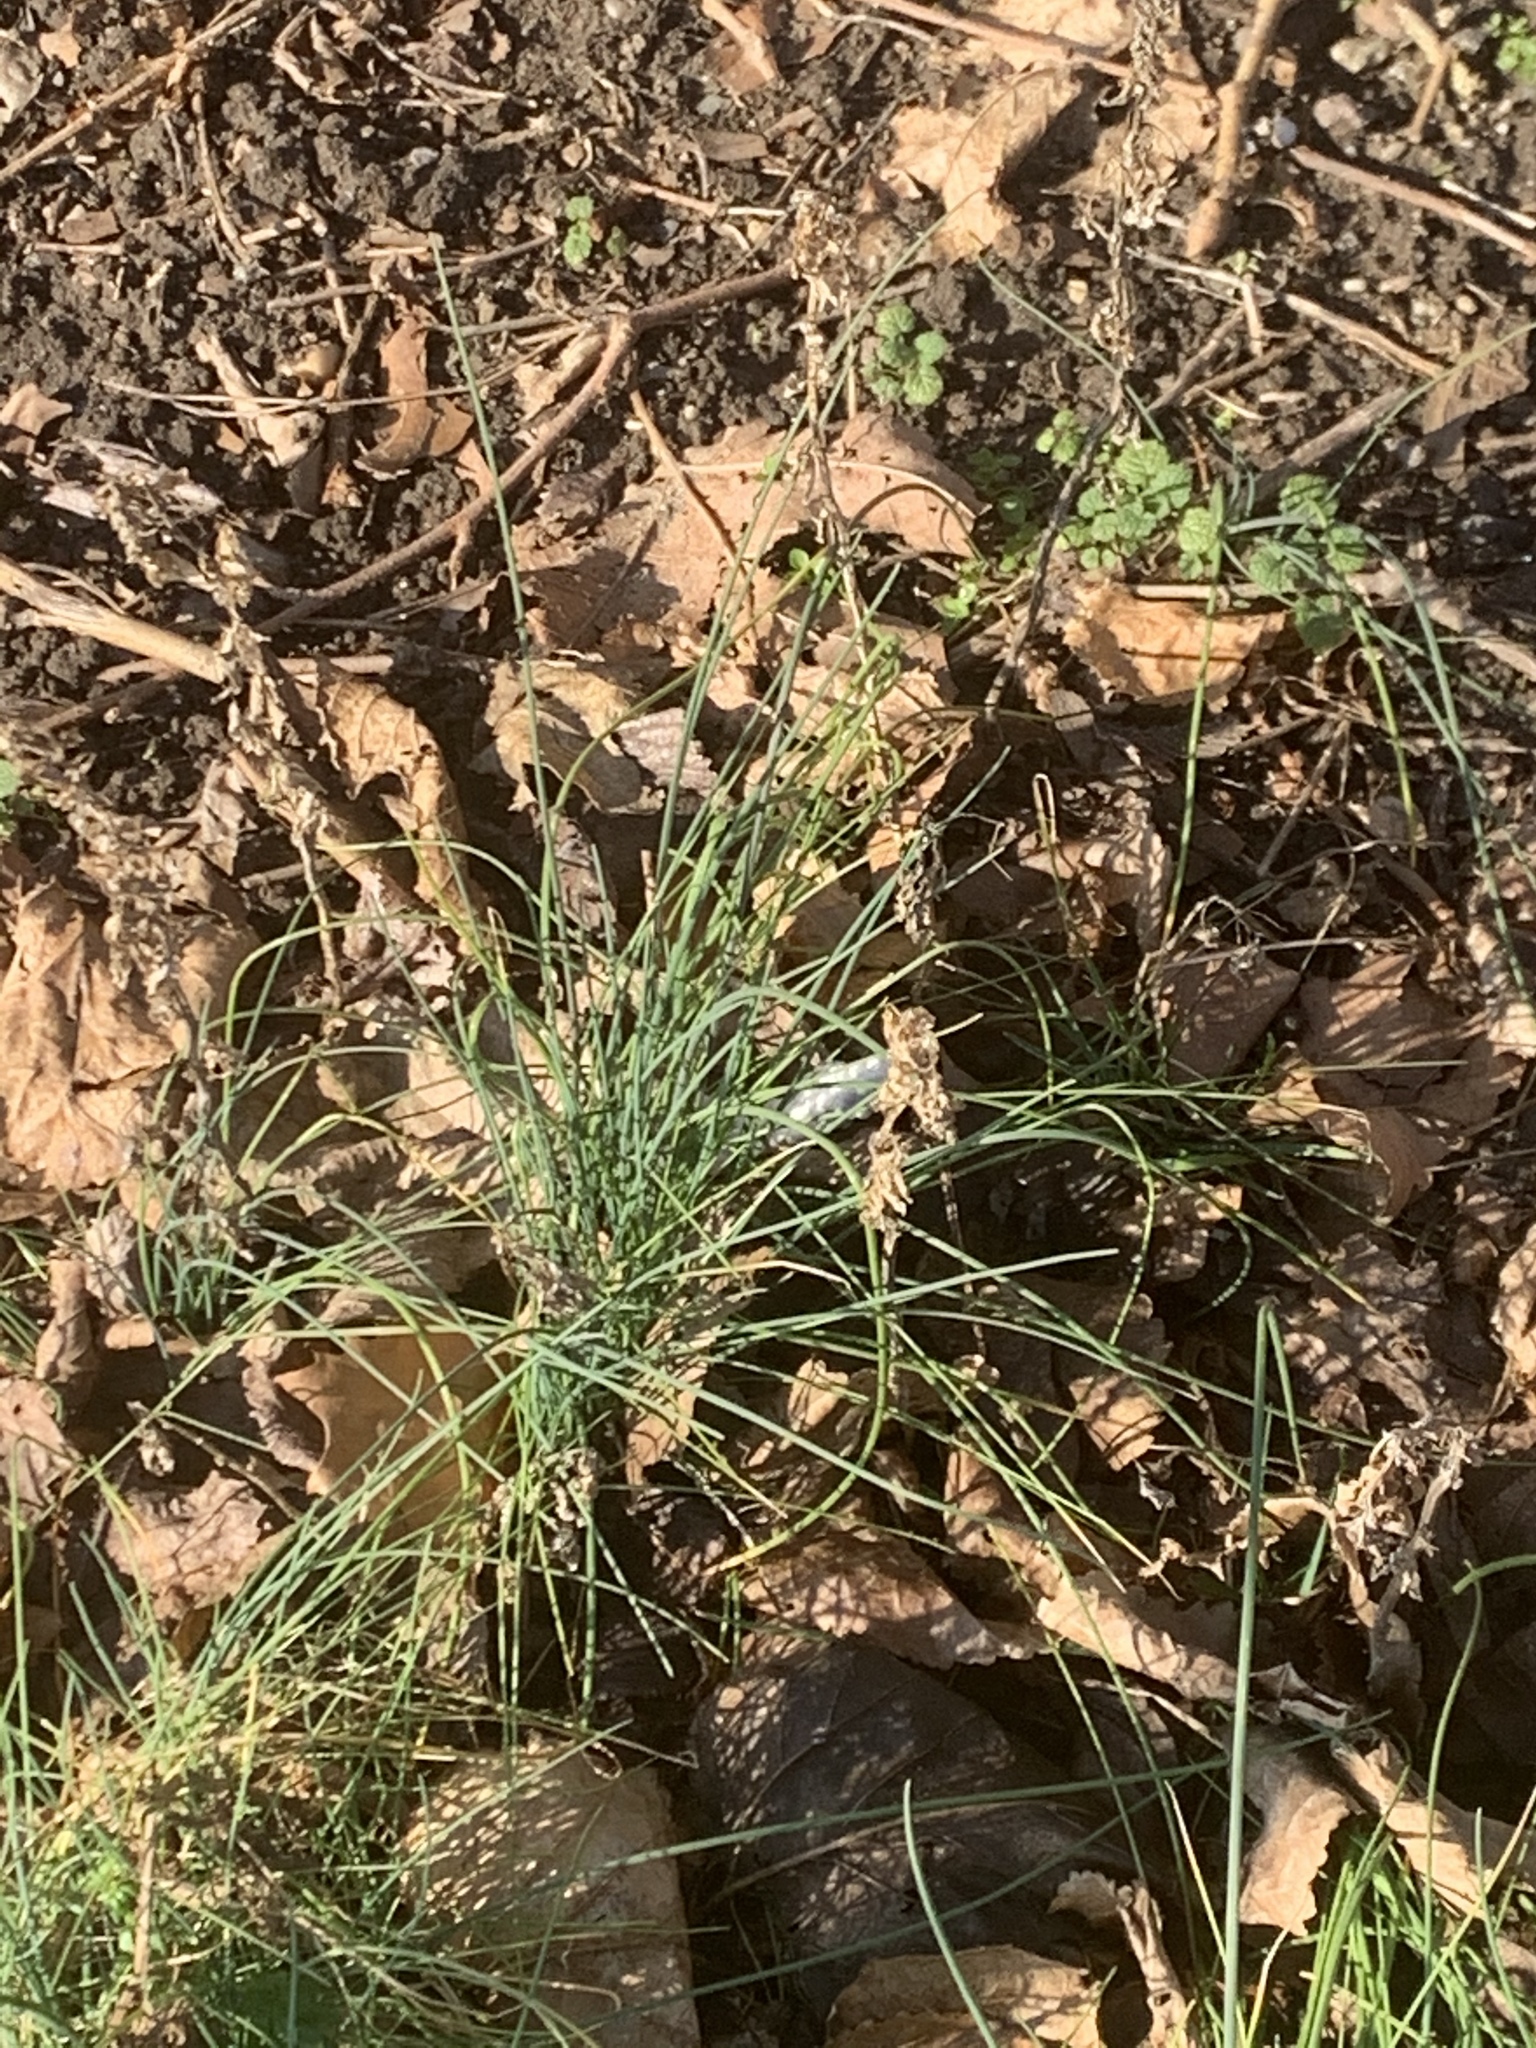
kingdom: Plantae
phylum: Tracheophyta
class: Liliopsida
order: Asparagales
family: Amaryllidaceae
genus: Allium
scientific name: Allium vineale
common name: Crow garlic
